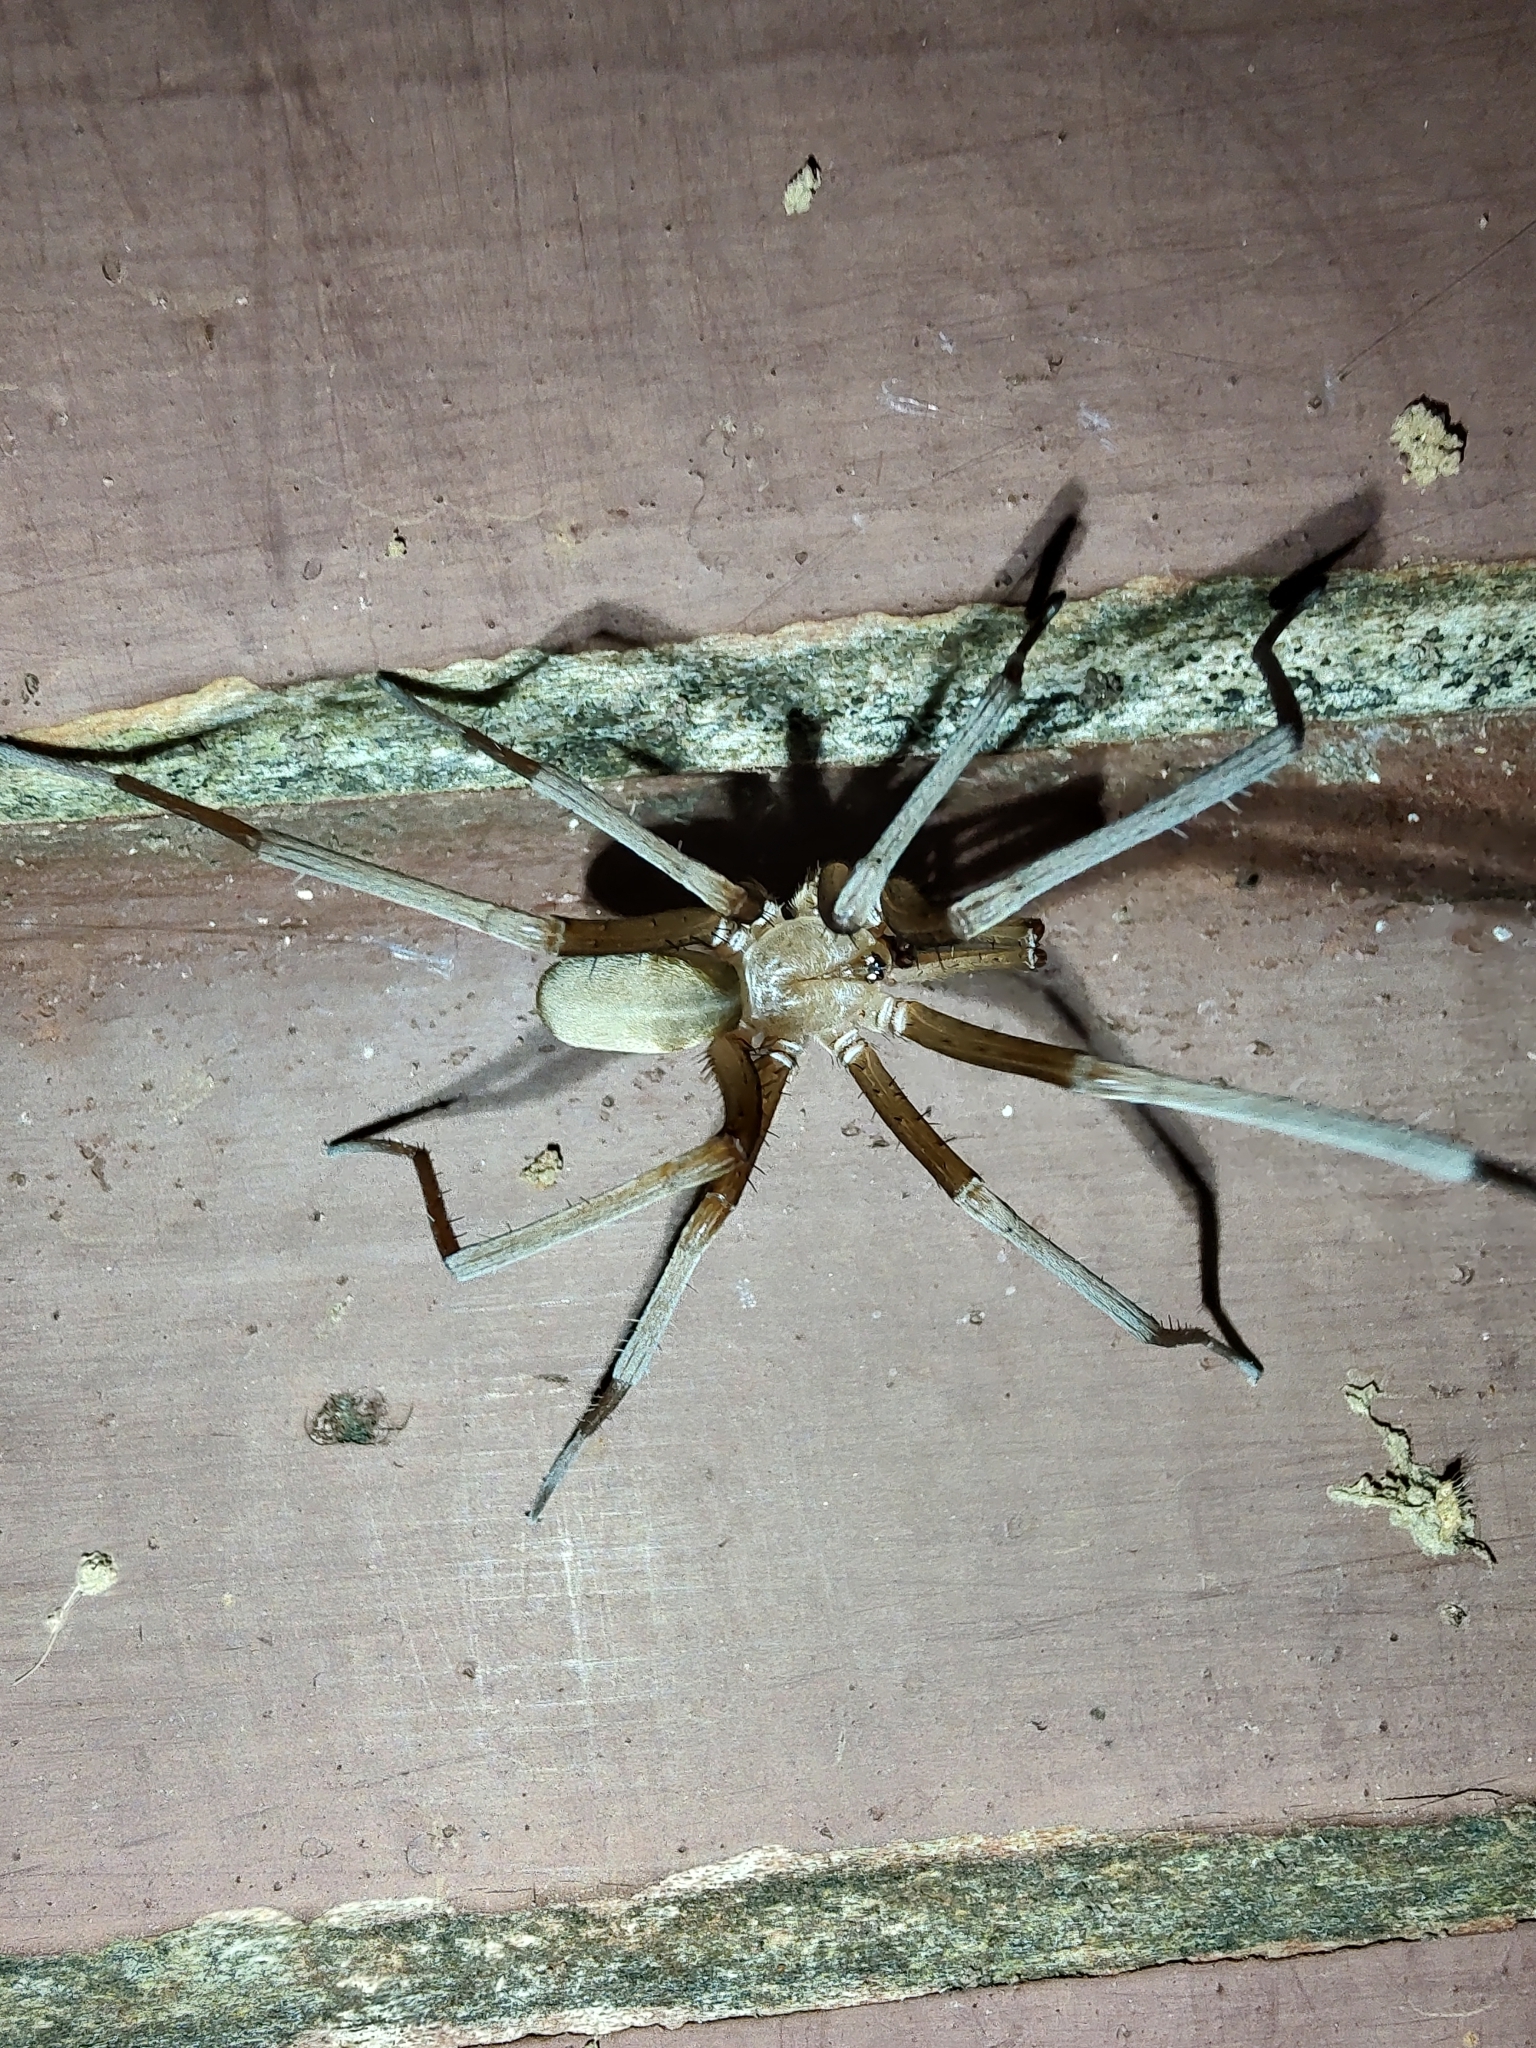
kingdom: Animalia
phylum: Arthropoda
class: Arachnida
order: Araneae
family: Filistatidae
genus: Kukulcania
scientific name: Kukulcania hibernalis
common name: Crevice weaver
